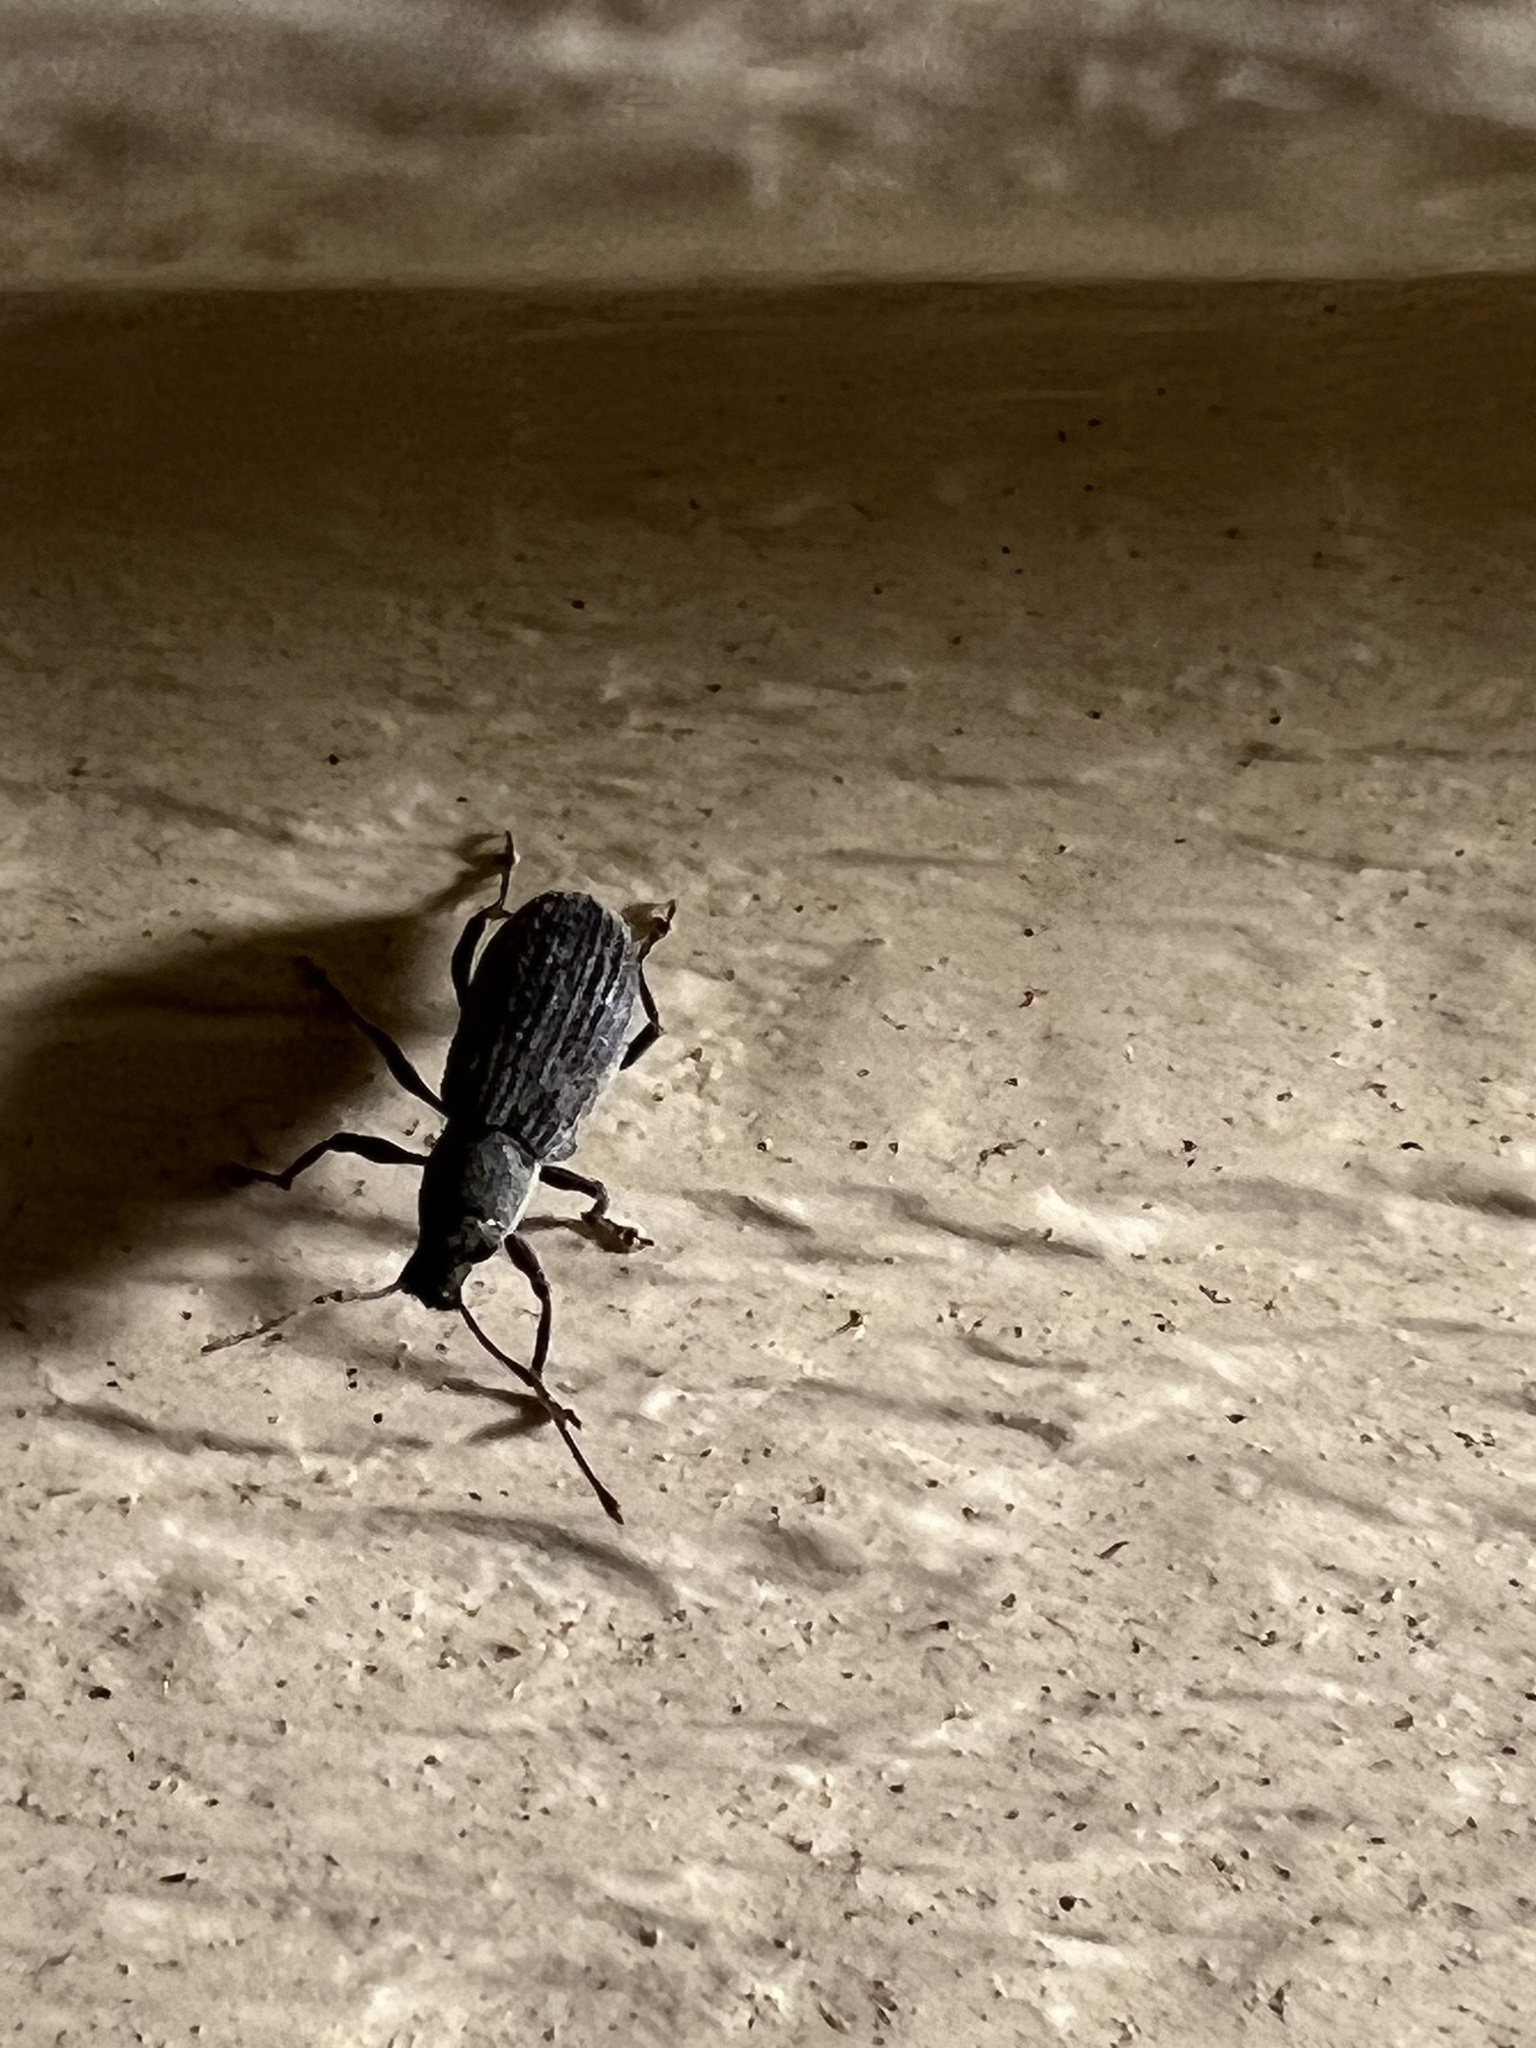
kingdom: Animalia
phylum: Arthropoda
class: Insecta
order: Coleoptera
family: Curculionidae
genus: Cyrtepistomus
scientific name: Cyrtepistomus castaneus
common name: Weevil
